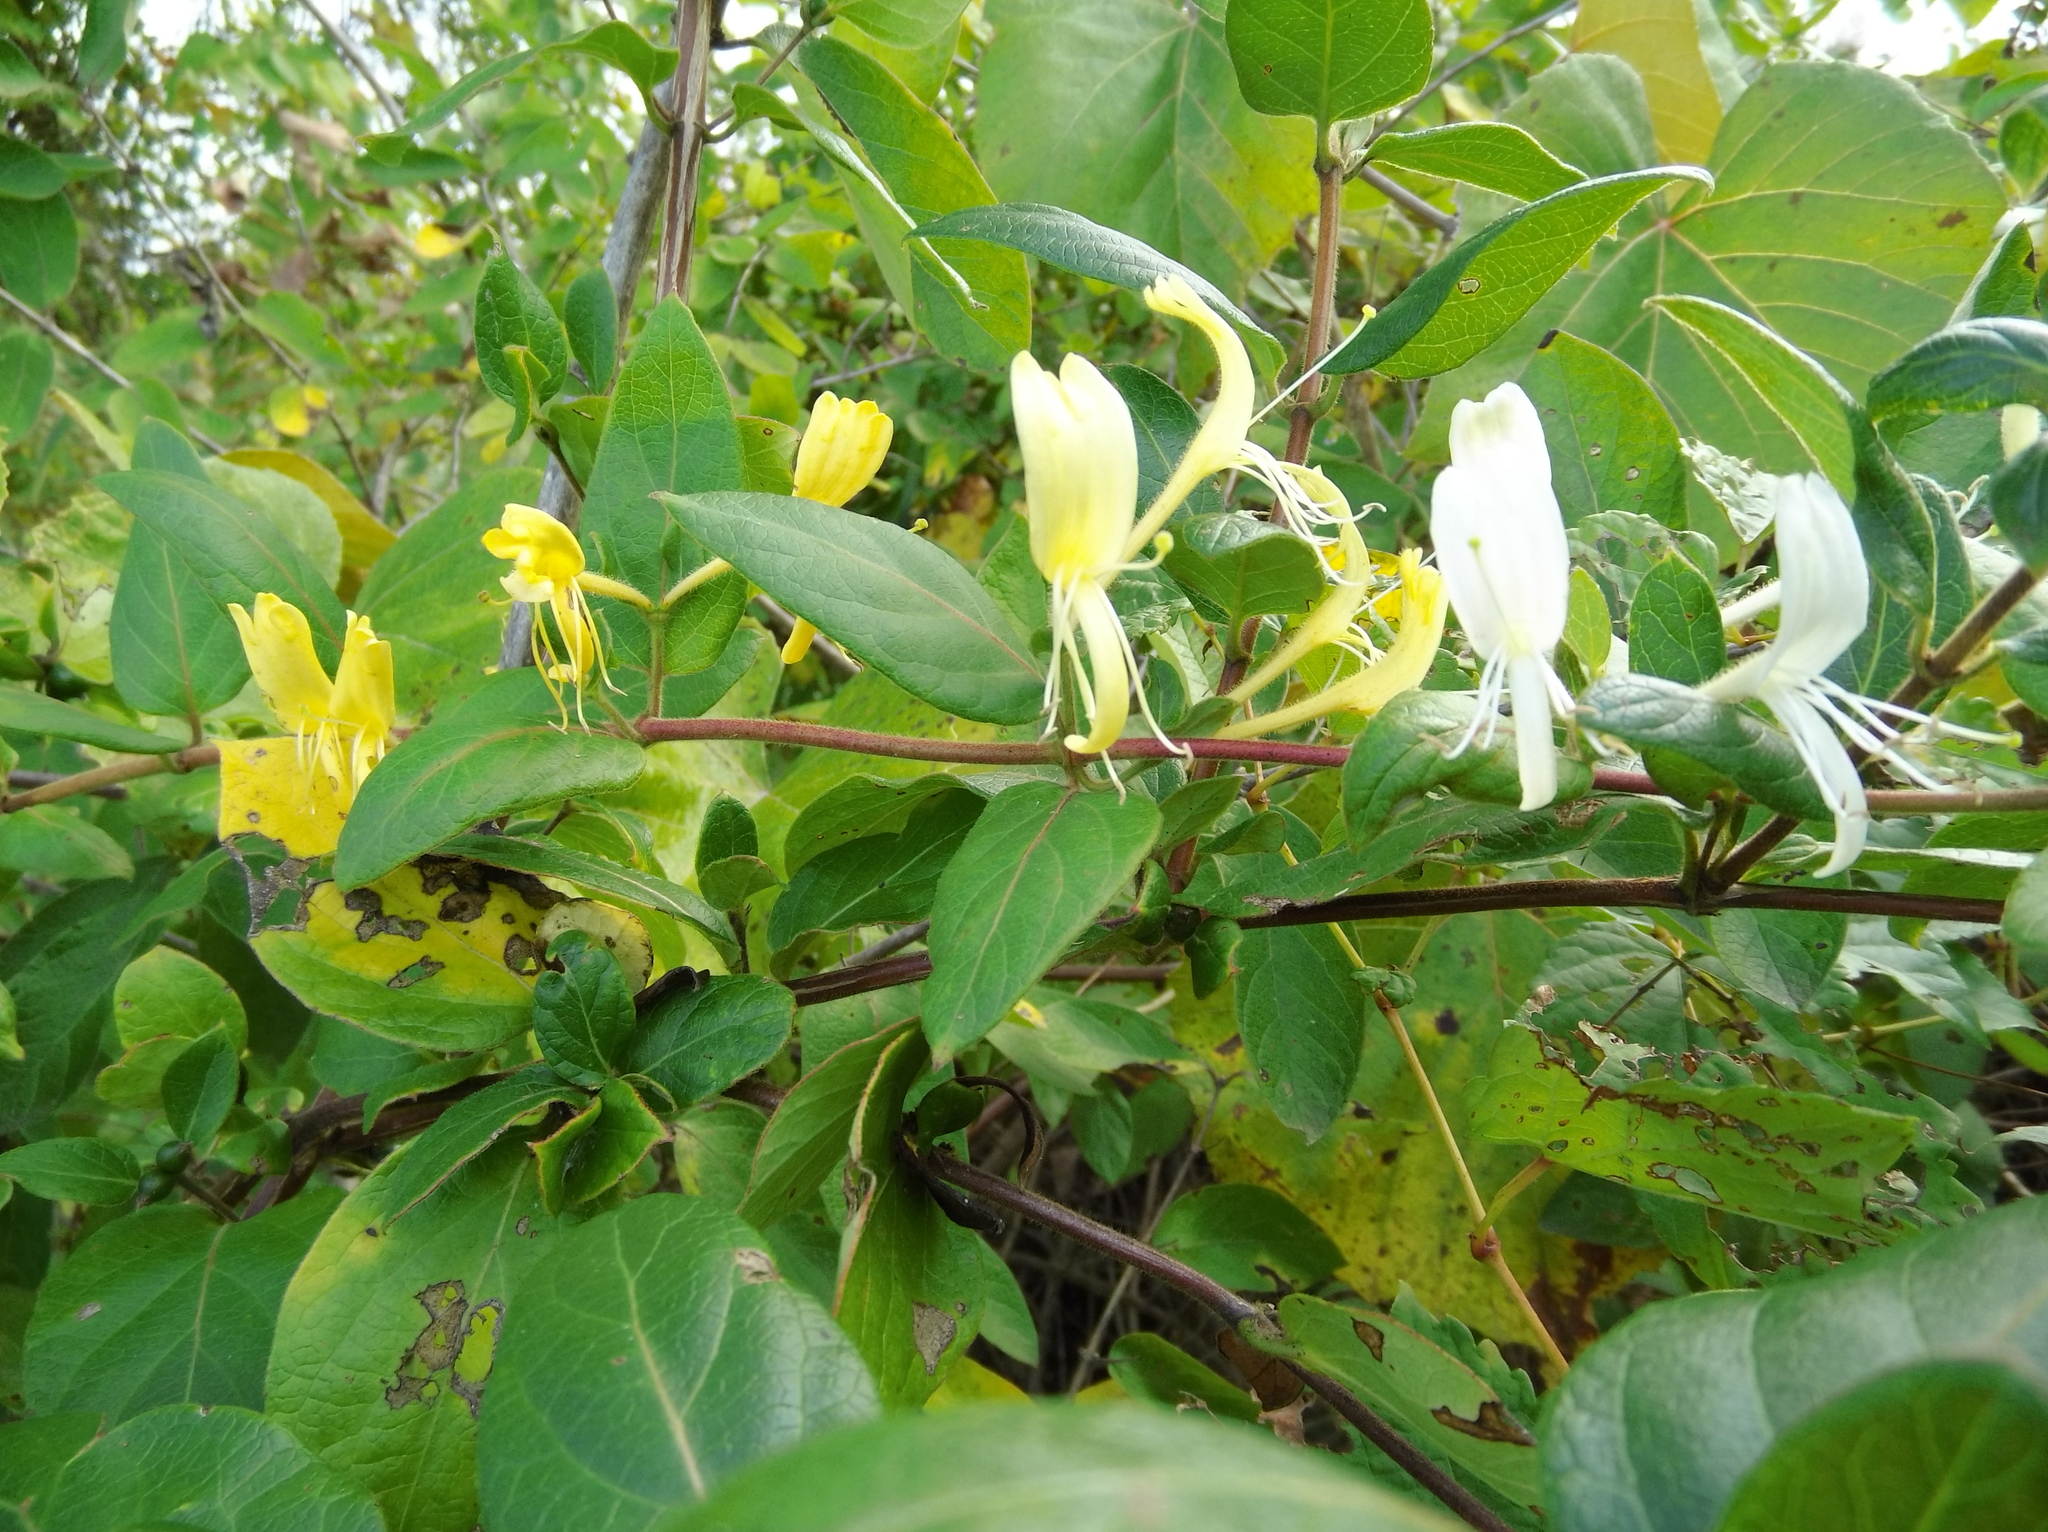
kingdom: Plantae
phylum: Tracheophyta
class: Magnoliopsida
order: Dipsacales
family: Caprifoliaceae
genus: Lonicera
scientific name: Lonicera japonica
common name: Japanese honeysuckle
